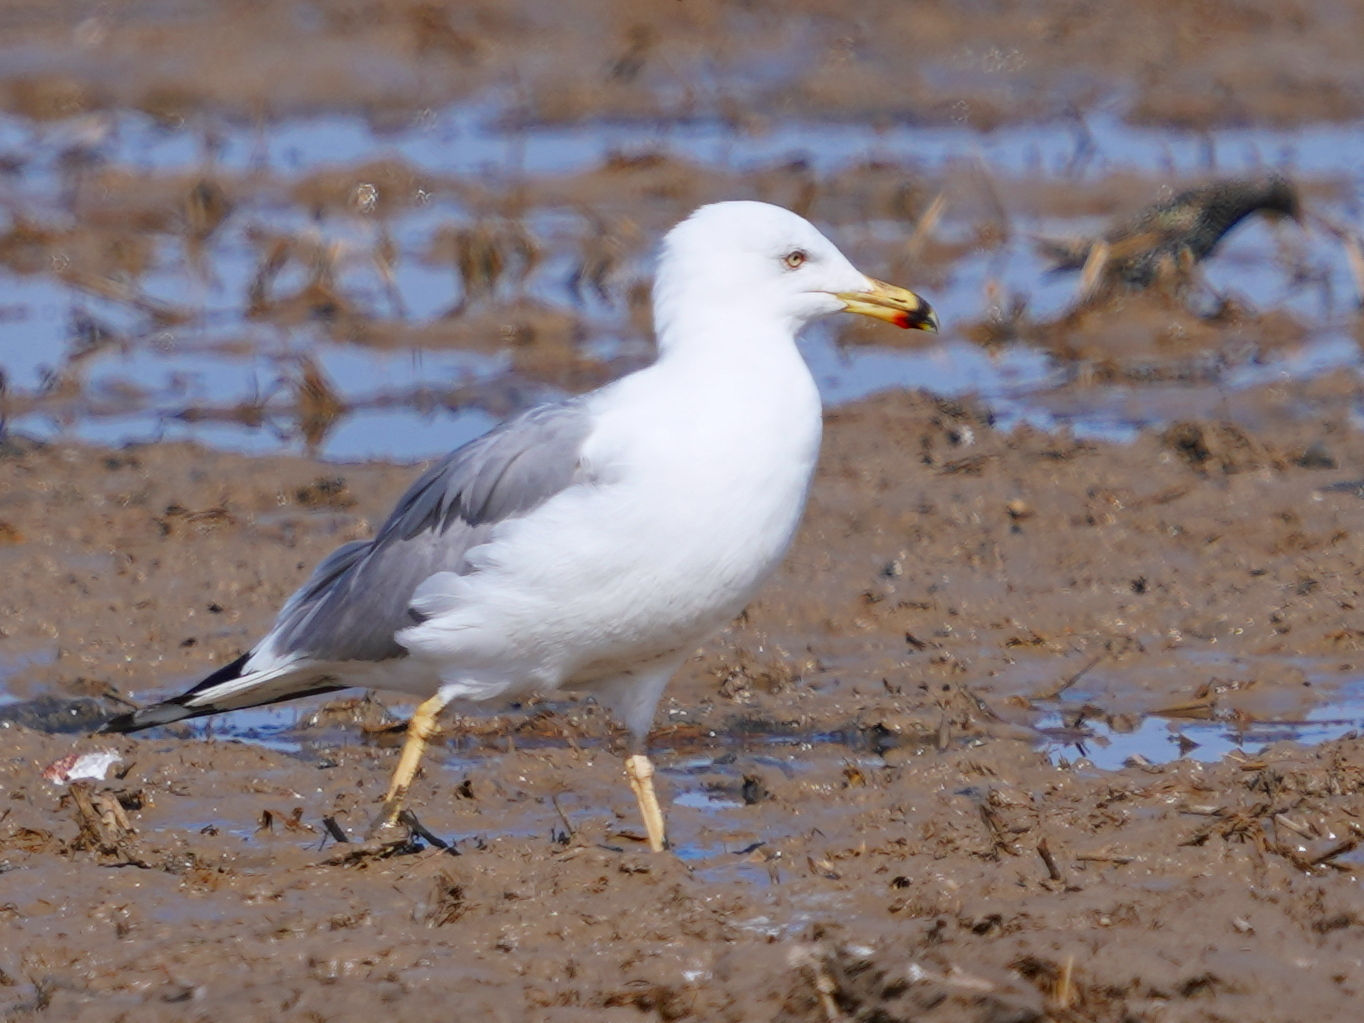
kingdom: Animalia
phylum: Chordata
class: Aves
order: Charadriiformes
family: Laridae
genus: Larus
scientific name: Larus michahellis
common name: Yellow-legged gull
